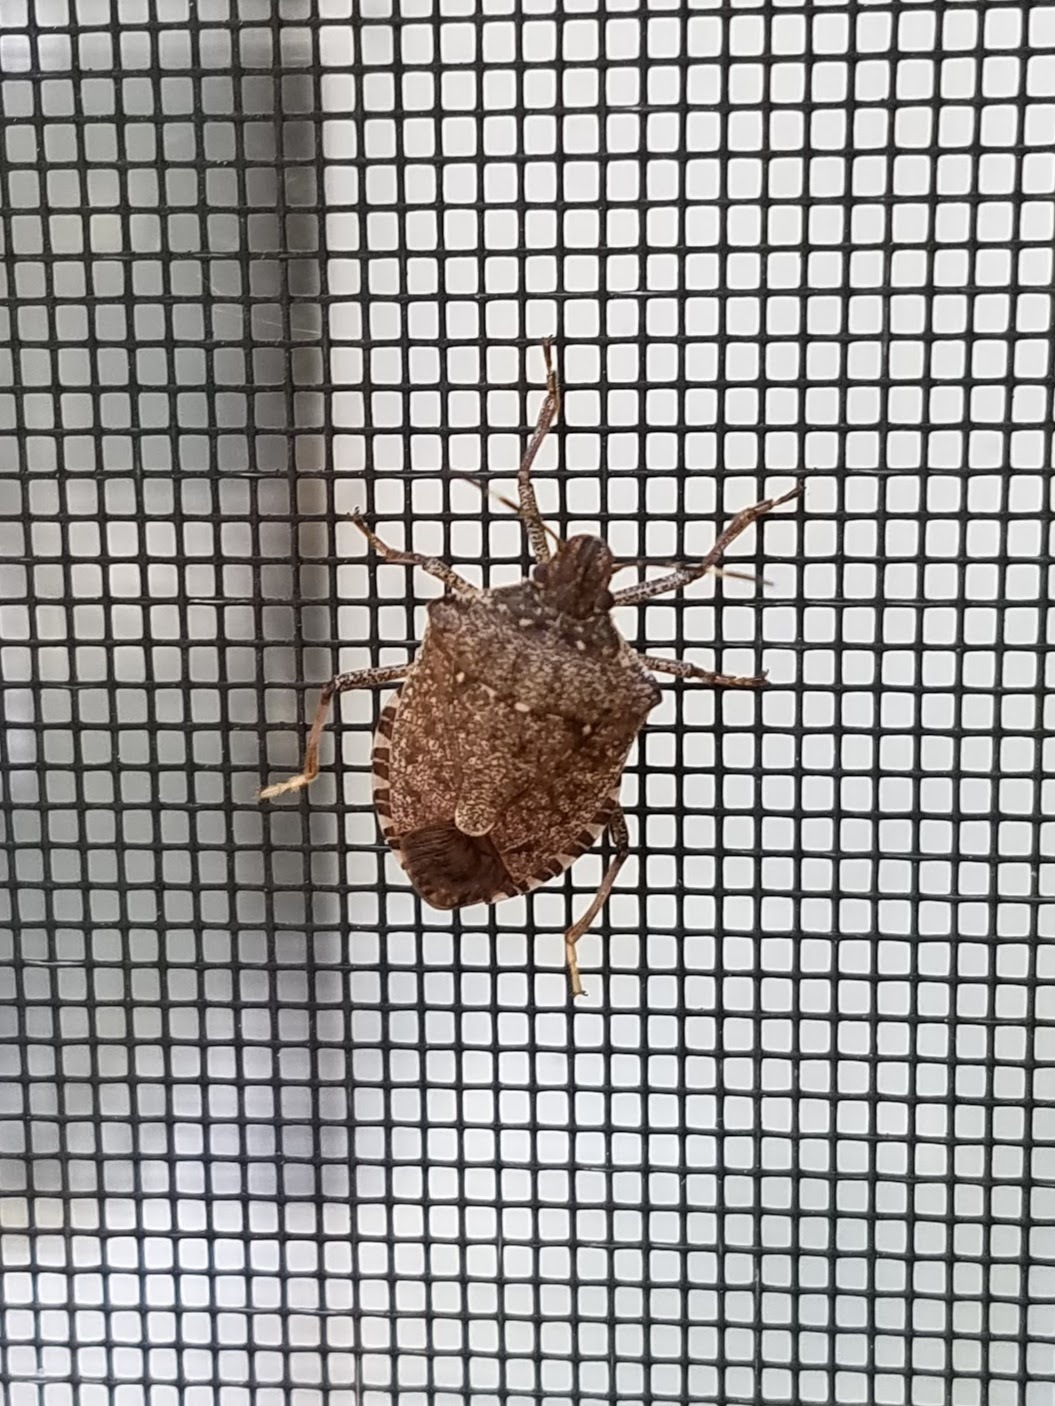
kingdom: Animalia
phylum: Arthropoda
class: Insecta
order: Hemiptera
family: Pentatomidae
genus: Halyomorpha
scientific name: Halyomorpha halys
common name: Brown marmorated stink bug
